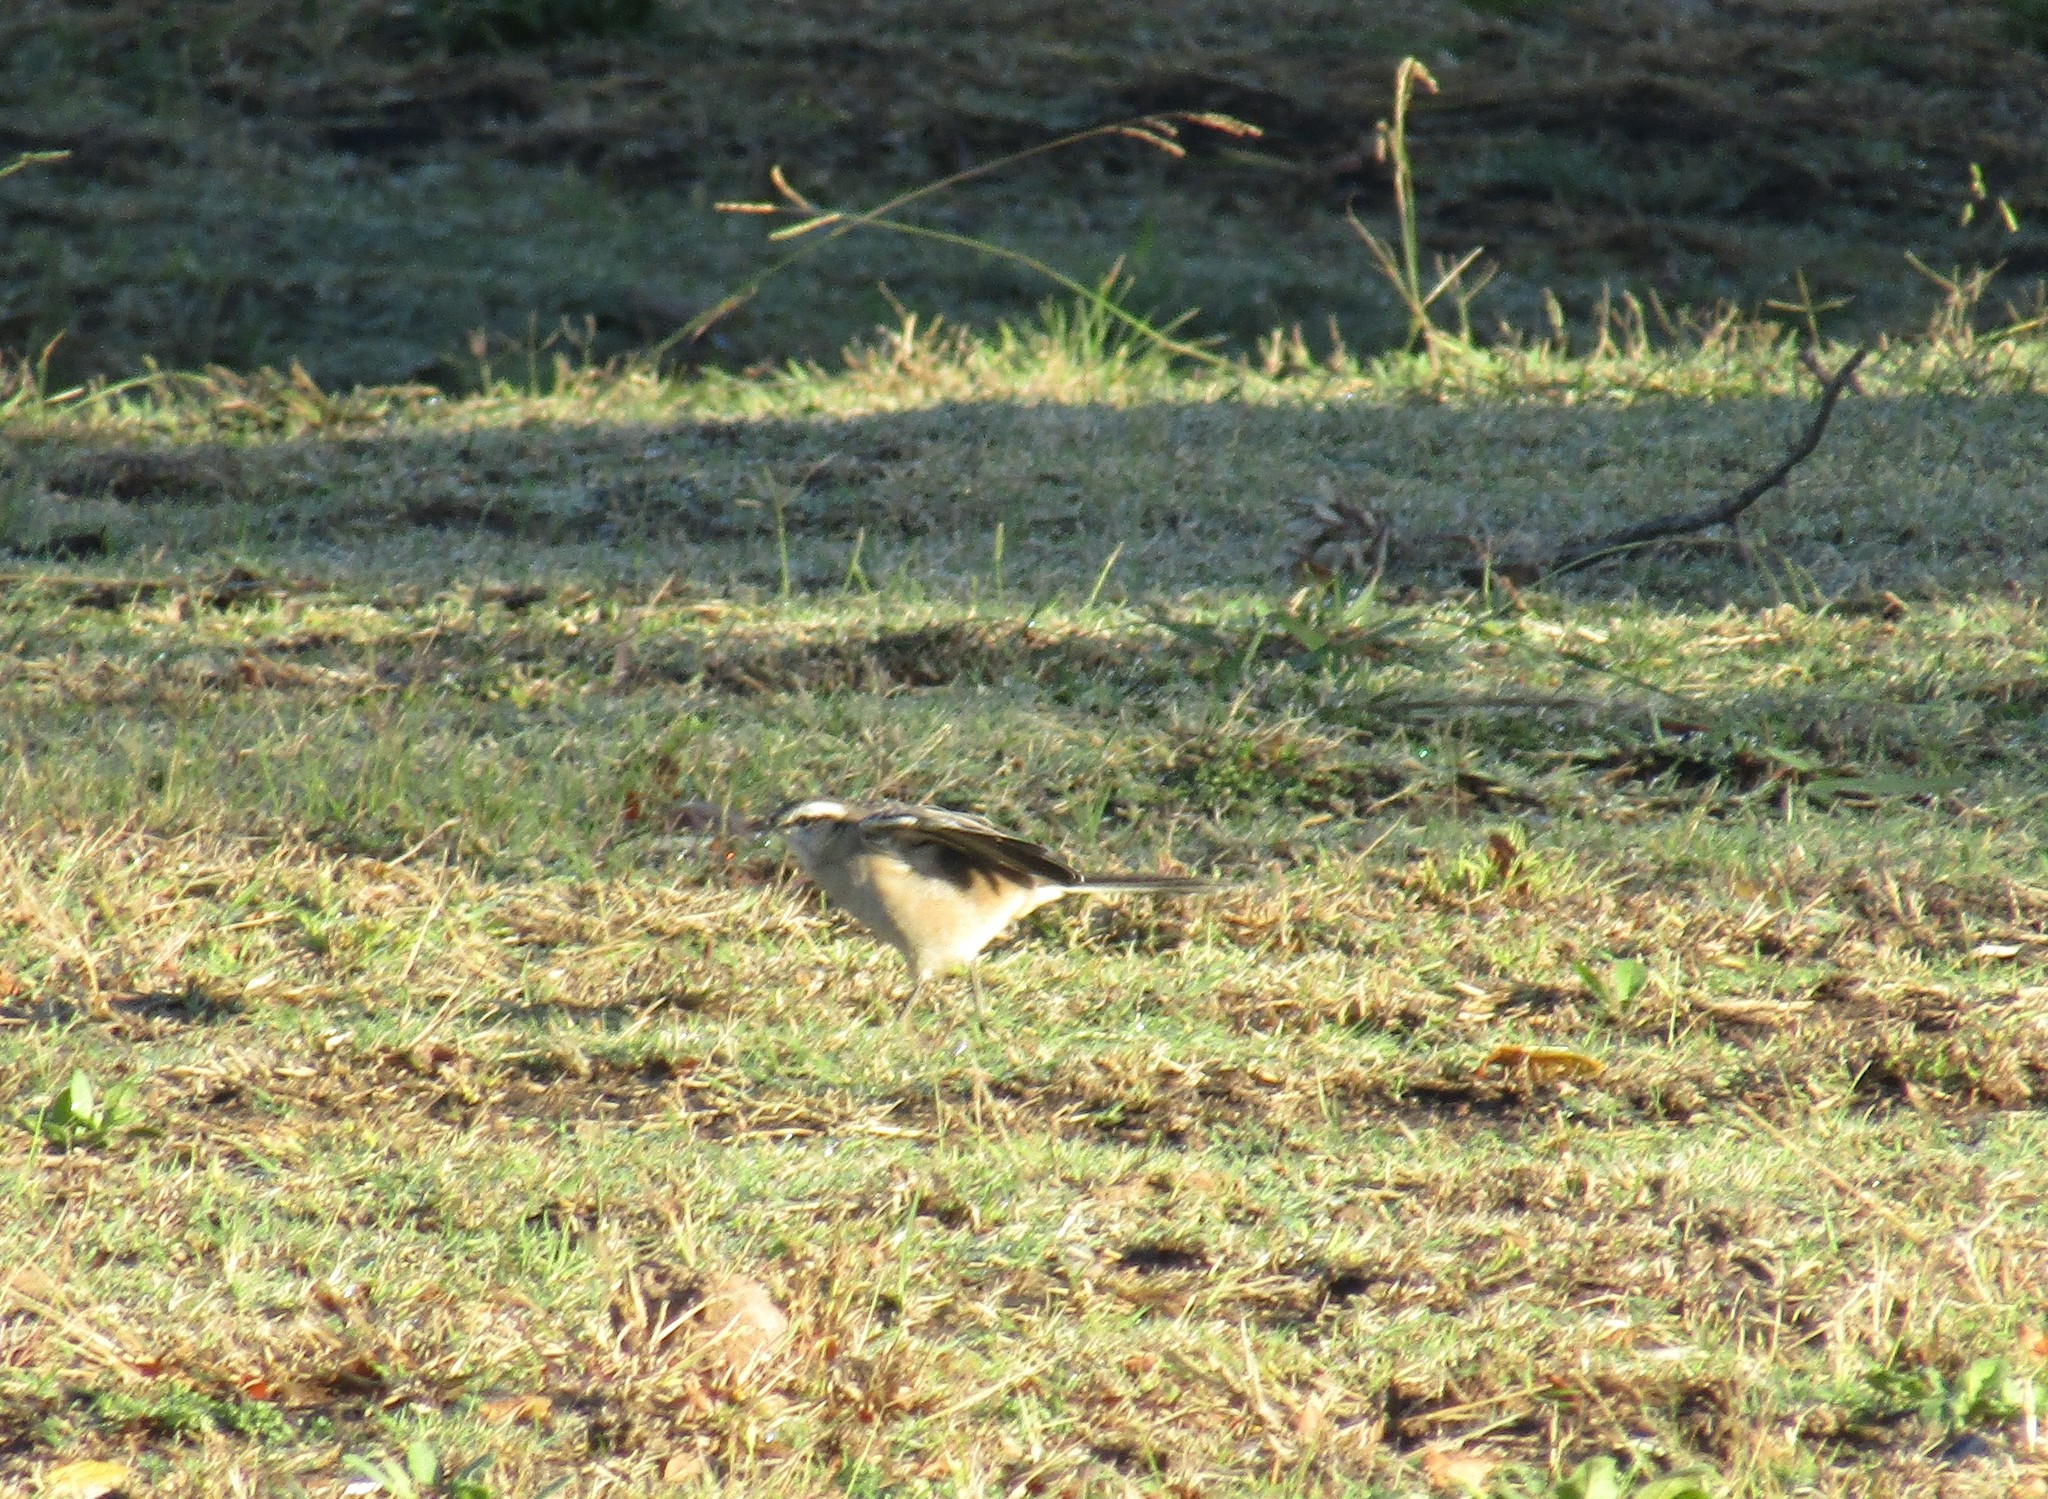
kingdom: Animalia
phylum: Chordata
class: Aves
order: Passeriformes
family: Mimidae
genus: Mimus
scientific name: Mimus saturninus
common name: Chalk-browed mockingbird
